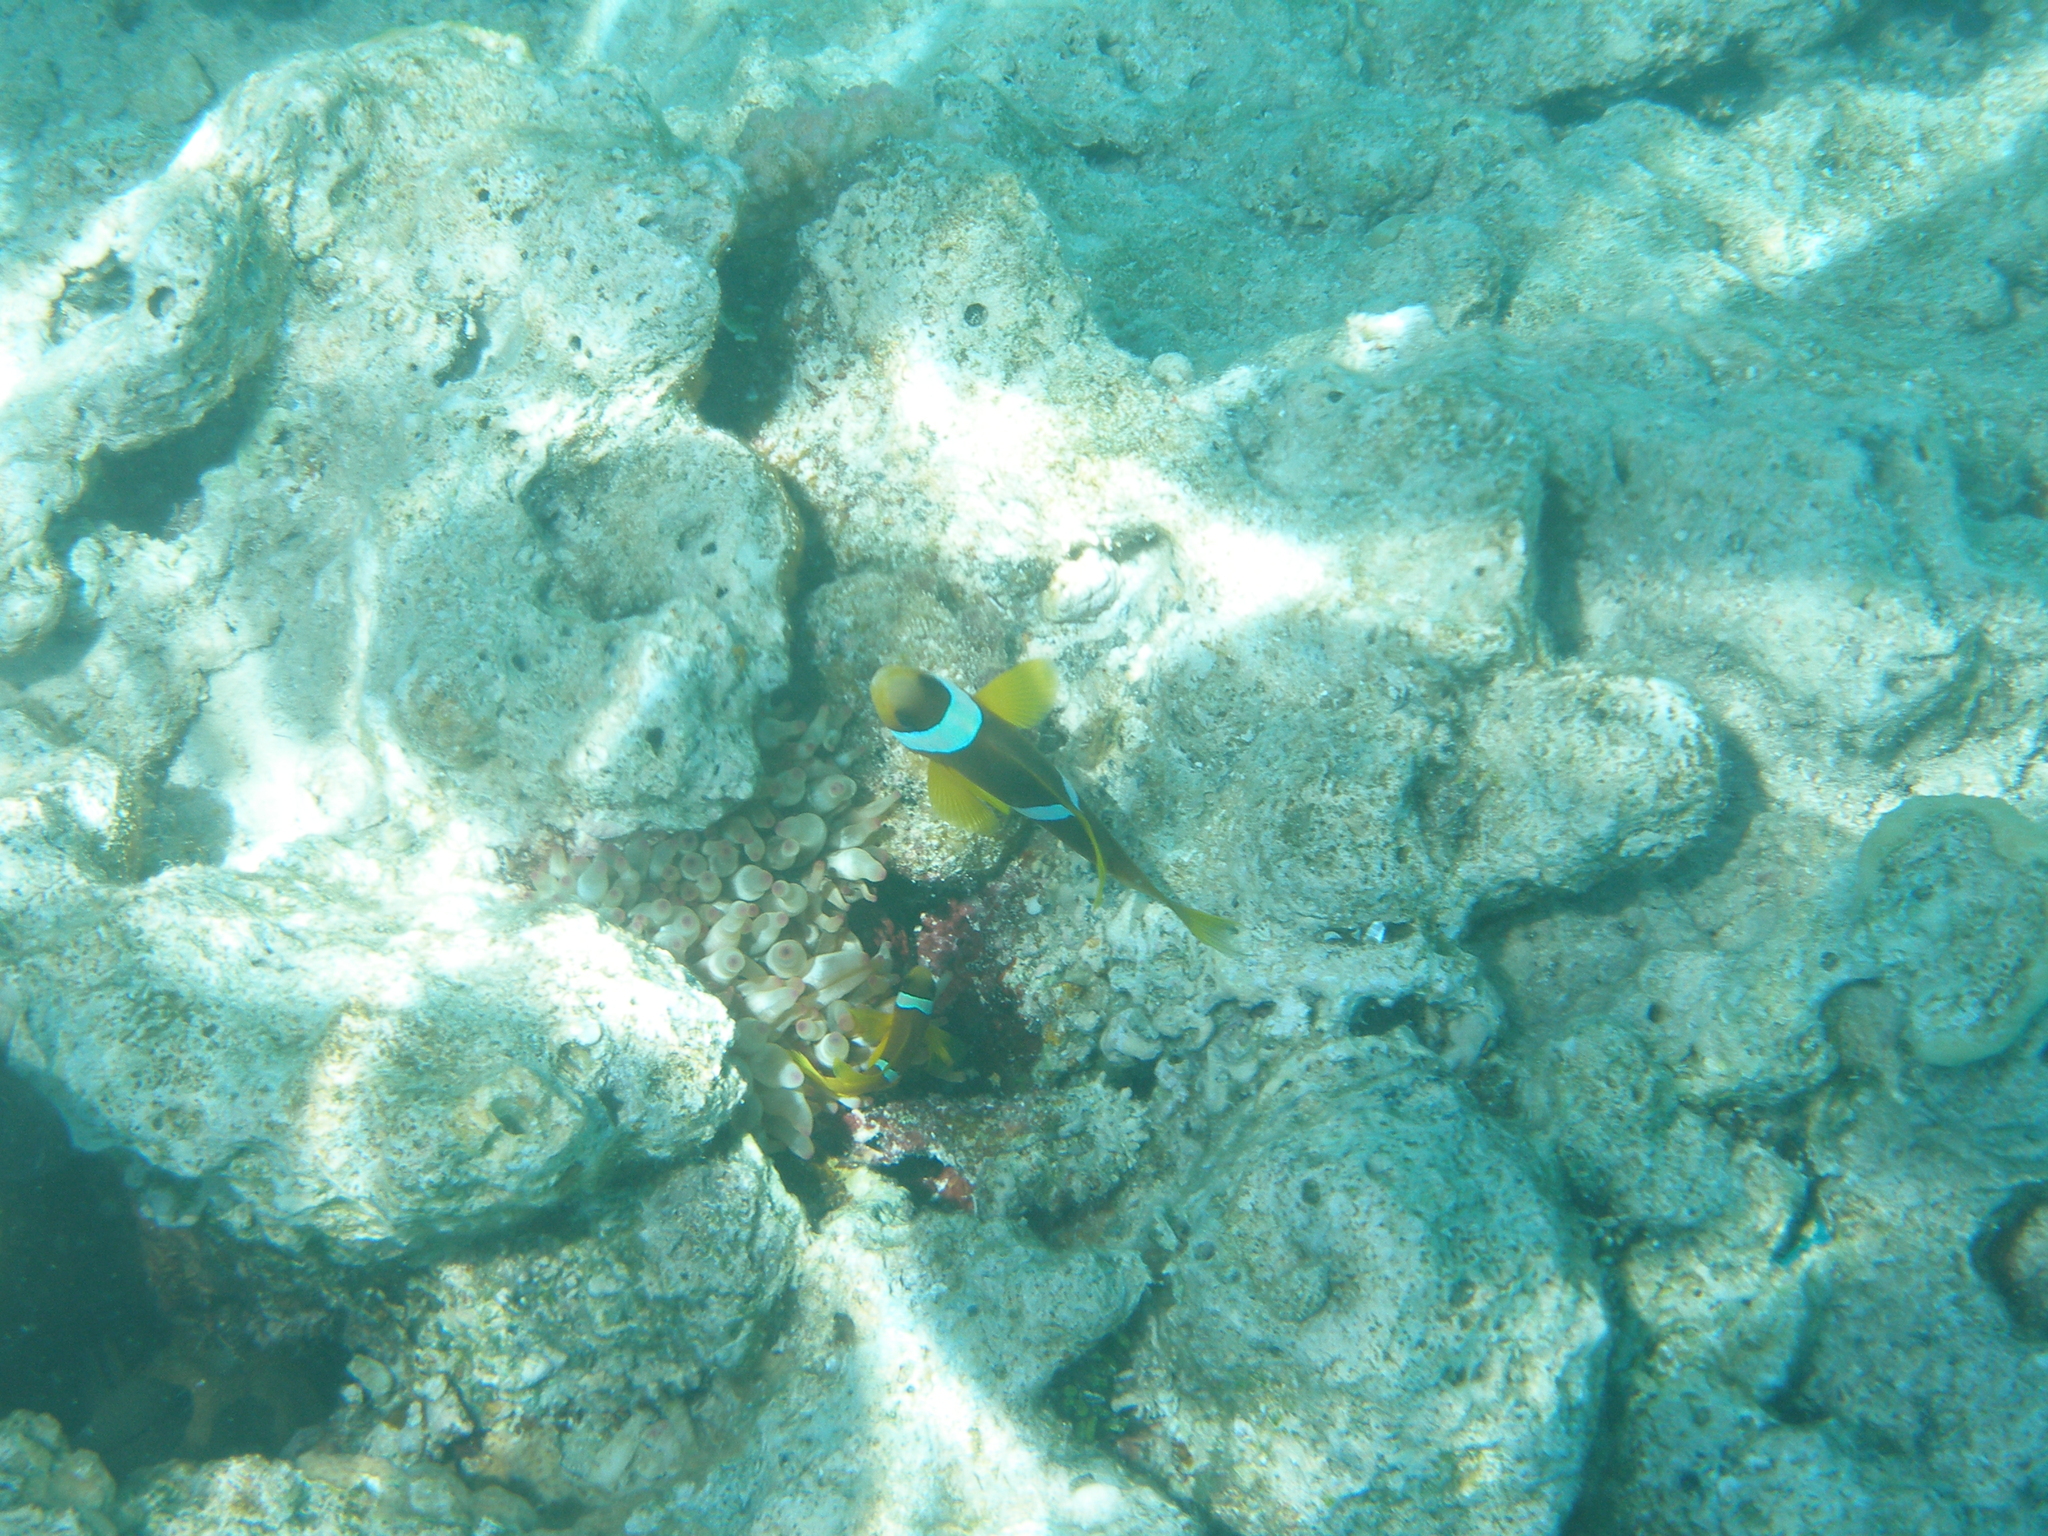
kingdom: Animalia
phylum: Chordata
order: Perciformes
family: Pomacentridae
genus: Amphiprion
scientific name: Amphiprion bicinctus
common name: Two-banded anemonefish
